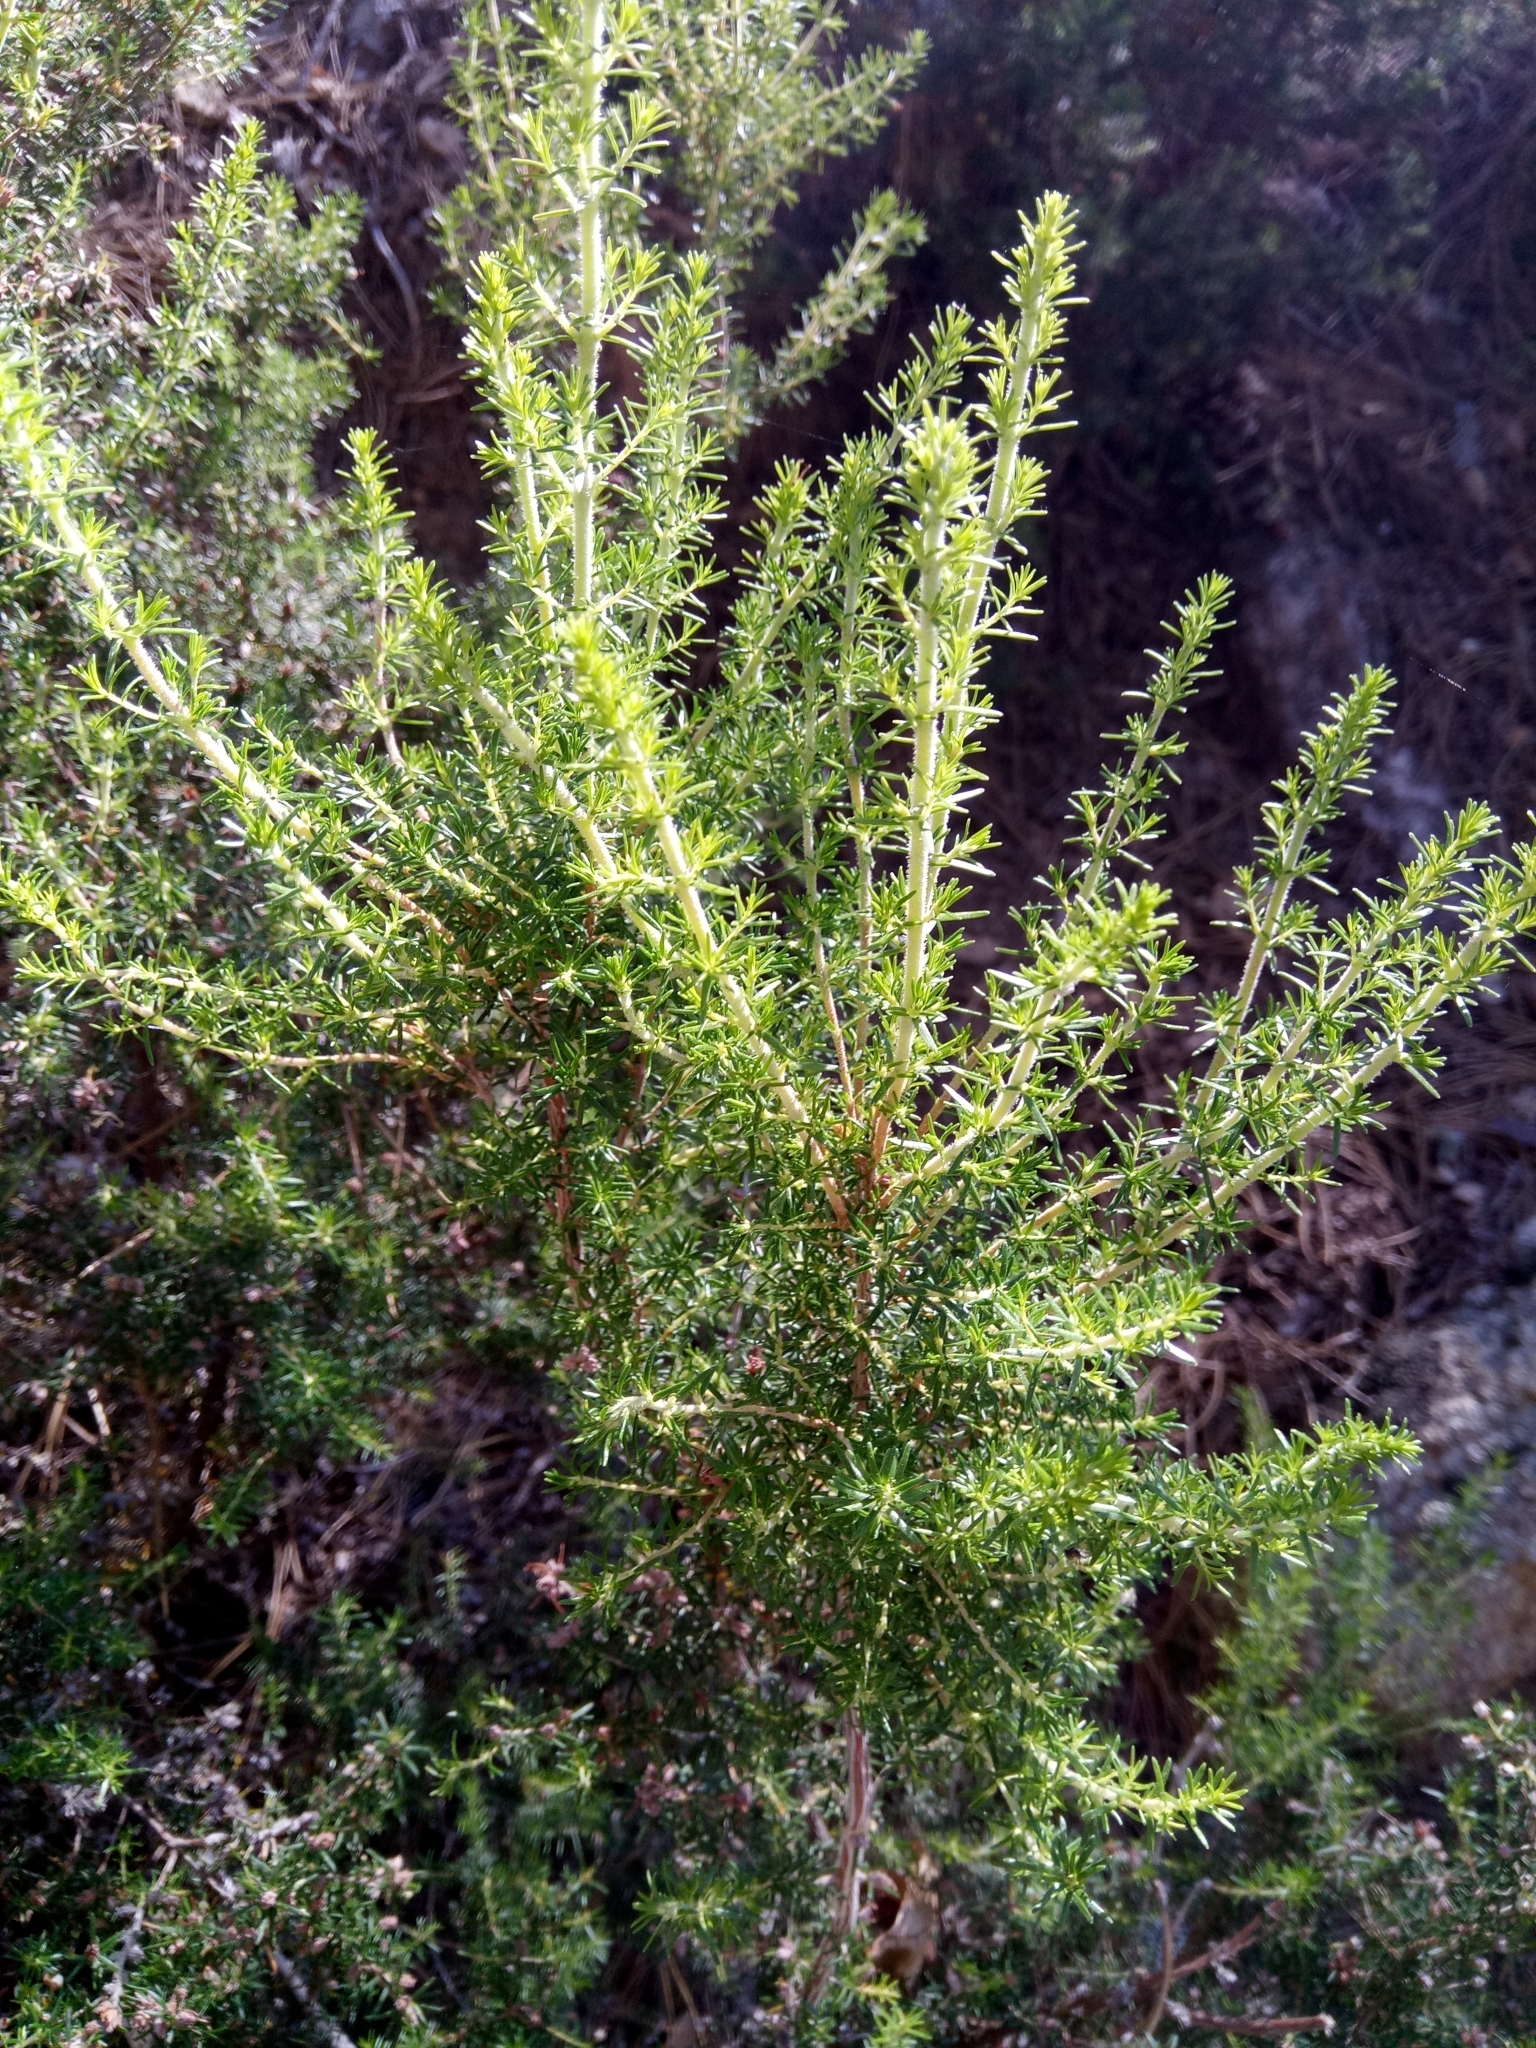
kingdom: Plantae
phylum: Tracheophyta
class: Magnoliopsida
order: Ericales
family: Ericaceae
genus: Erica
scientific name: Erica arborea
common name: Tree heath
